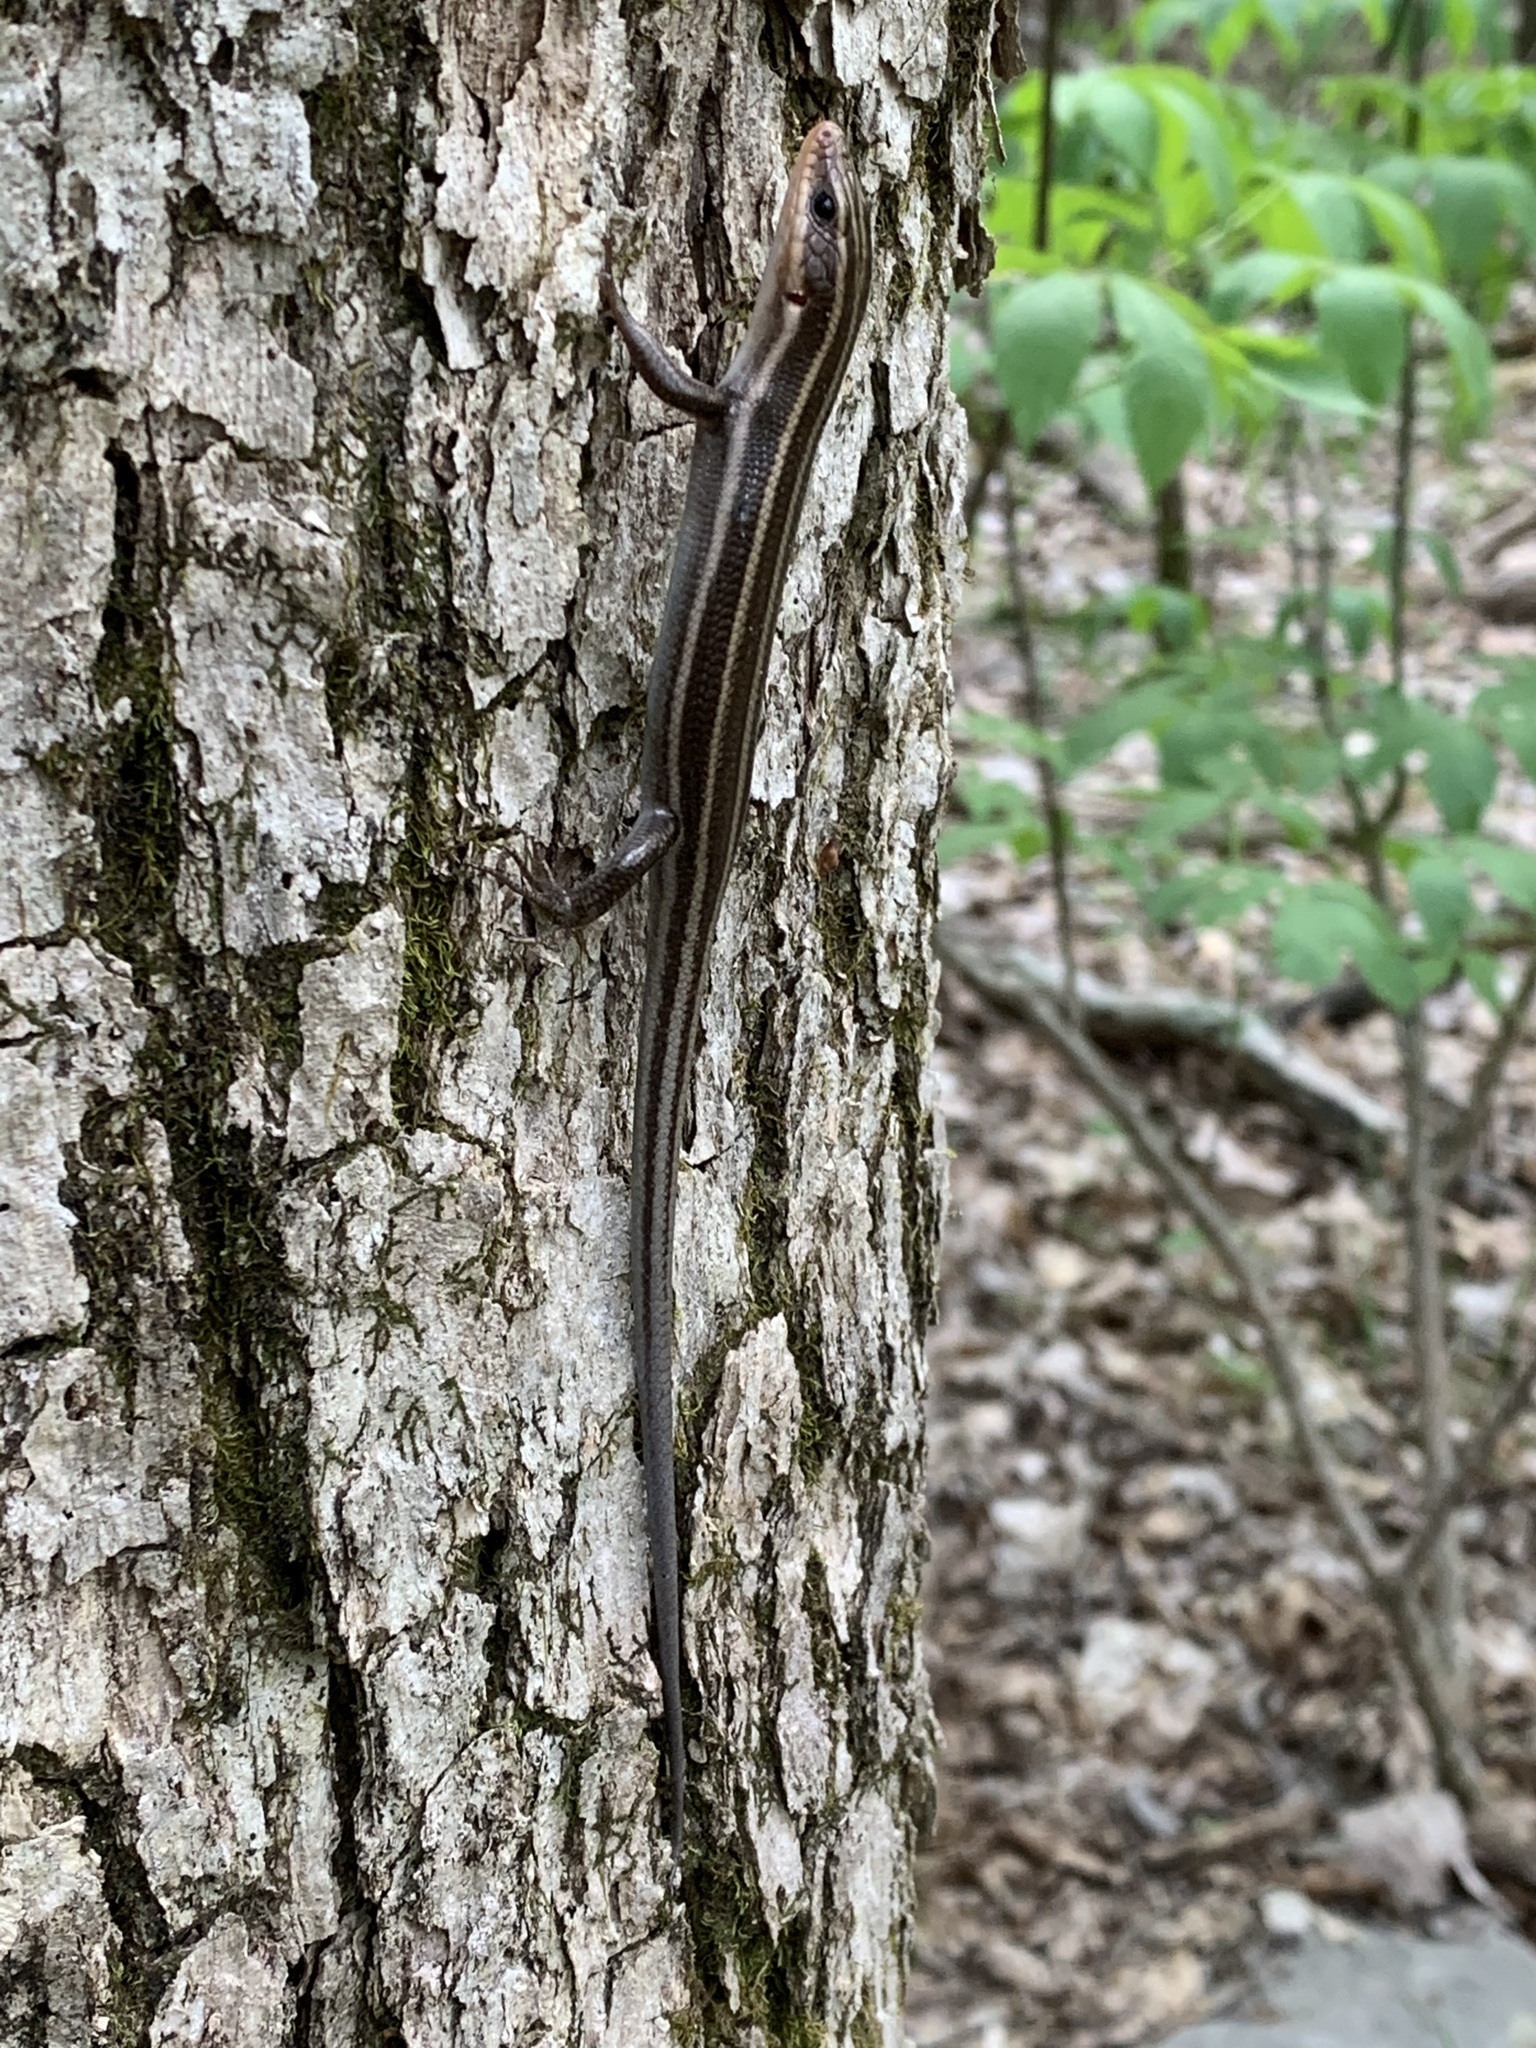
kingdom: Animalia
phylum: Chordata
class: Squamata
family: Scincidae
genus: Plestiodon
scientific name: Plestiodon fasciatus
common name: Five-lined skink
